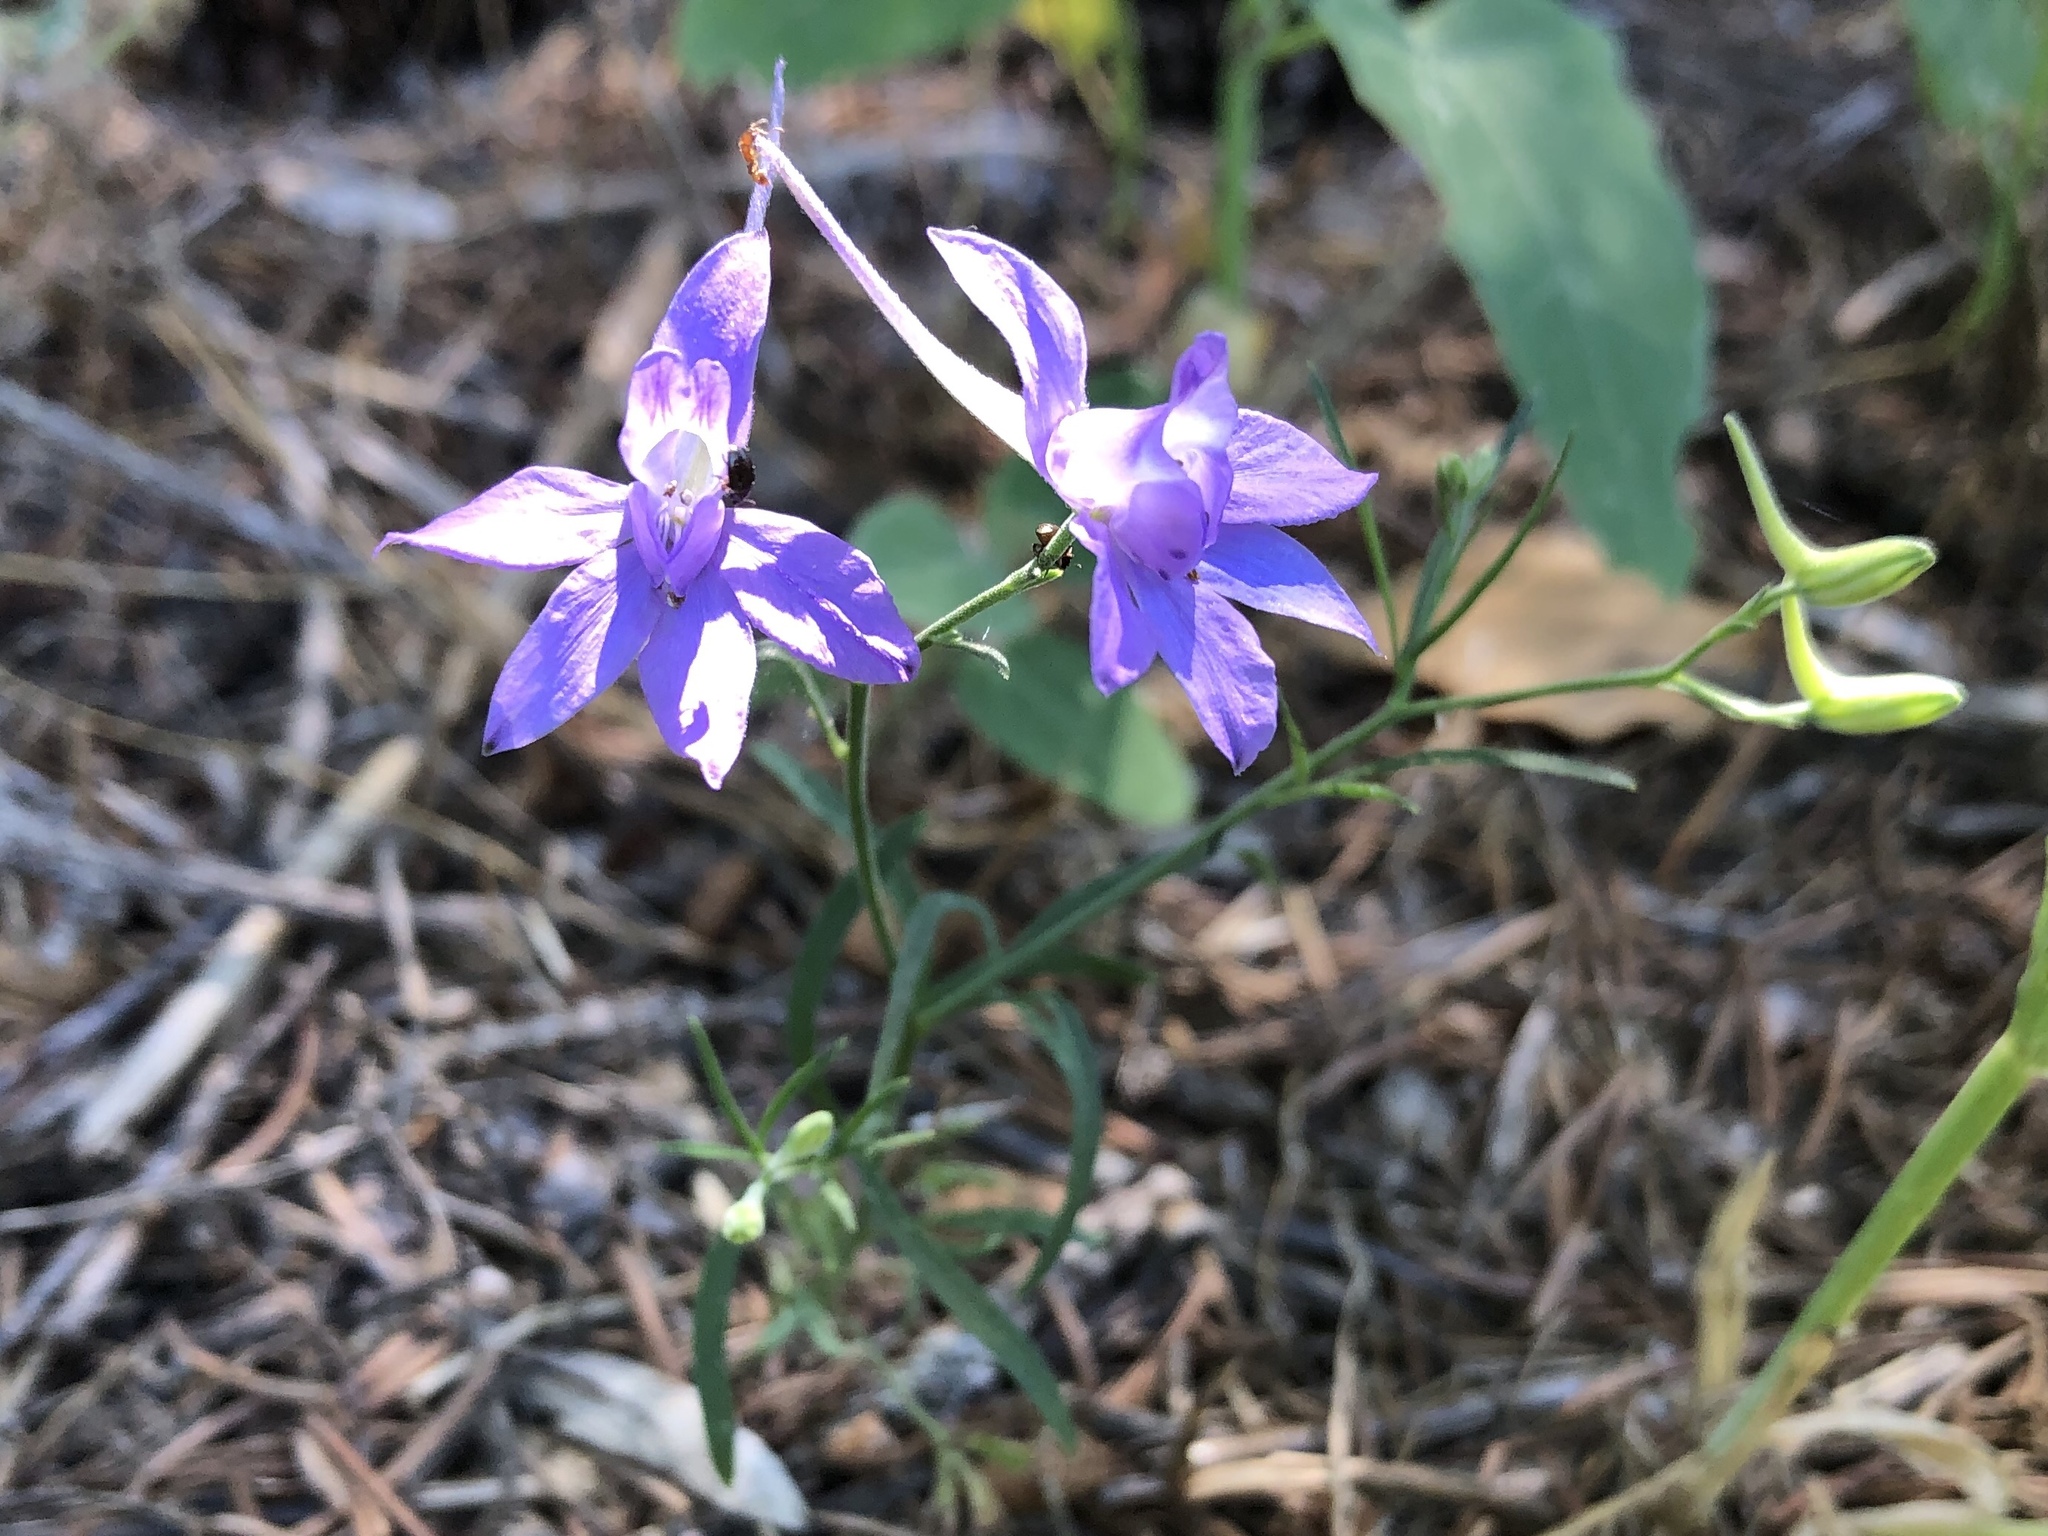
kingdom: Plantae
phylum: Tracheophyta
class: Magnoliopsida
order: Ranunculales
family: Ranunculaceae
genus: Delphinium
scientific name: Delphinium consolida
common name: Branching larkspur
